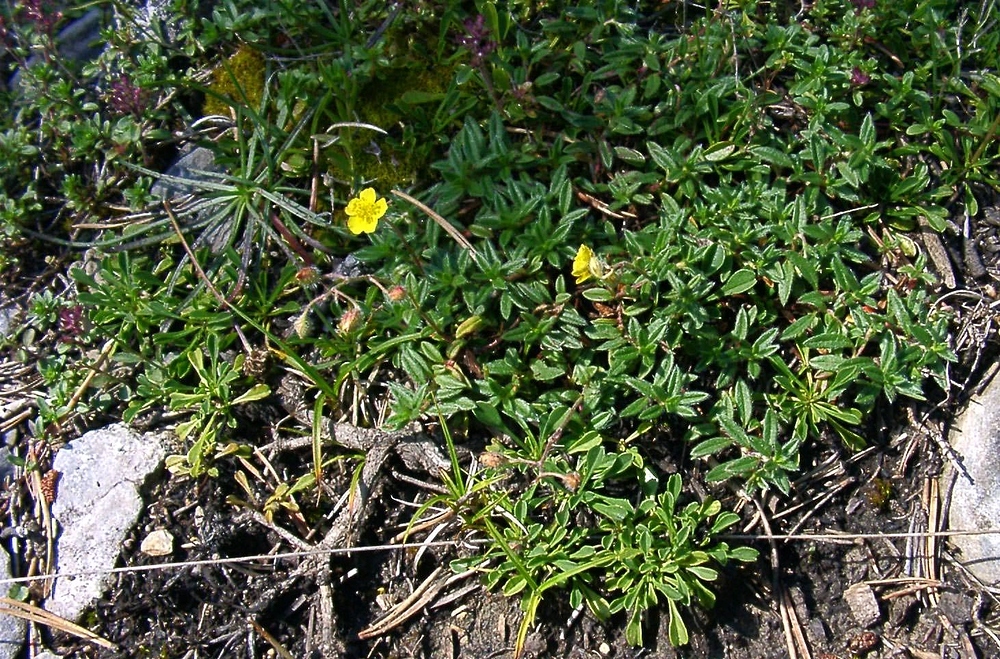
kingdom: Plantae
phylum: Tracheophyta
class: Magnoliopsida
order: Malvales
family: Cistaceae
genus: Helianthemum
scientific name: Helianthemum oelandicum
